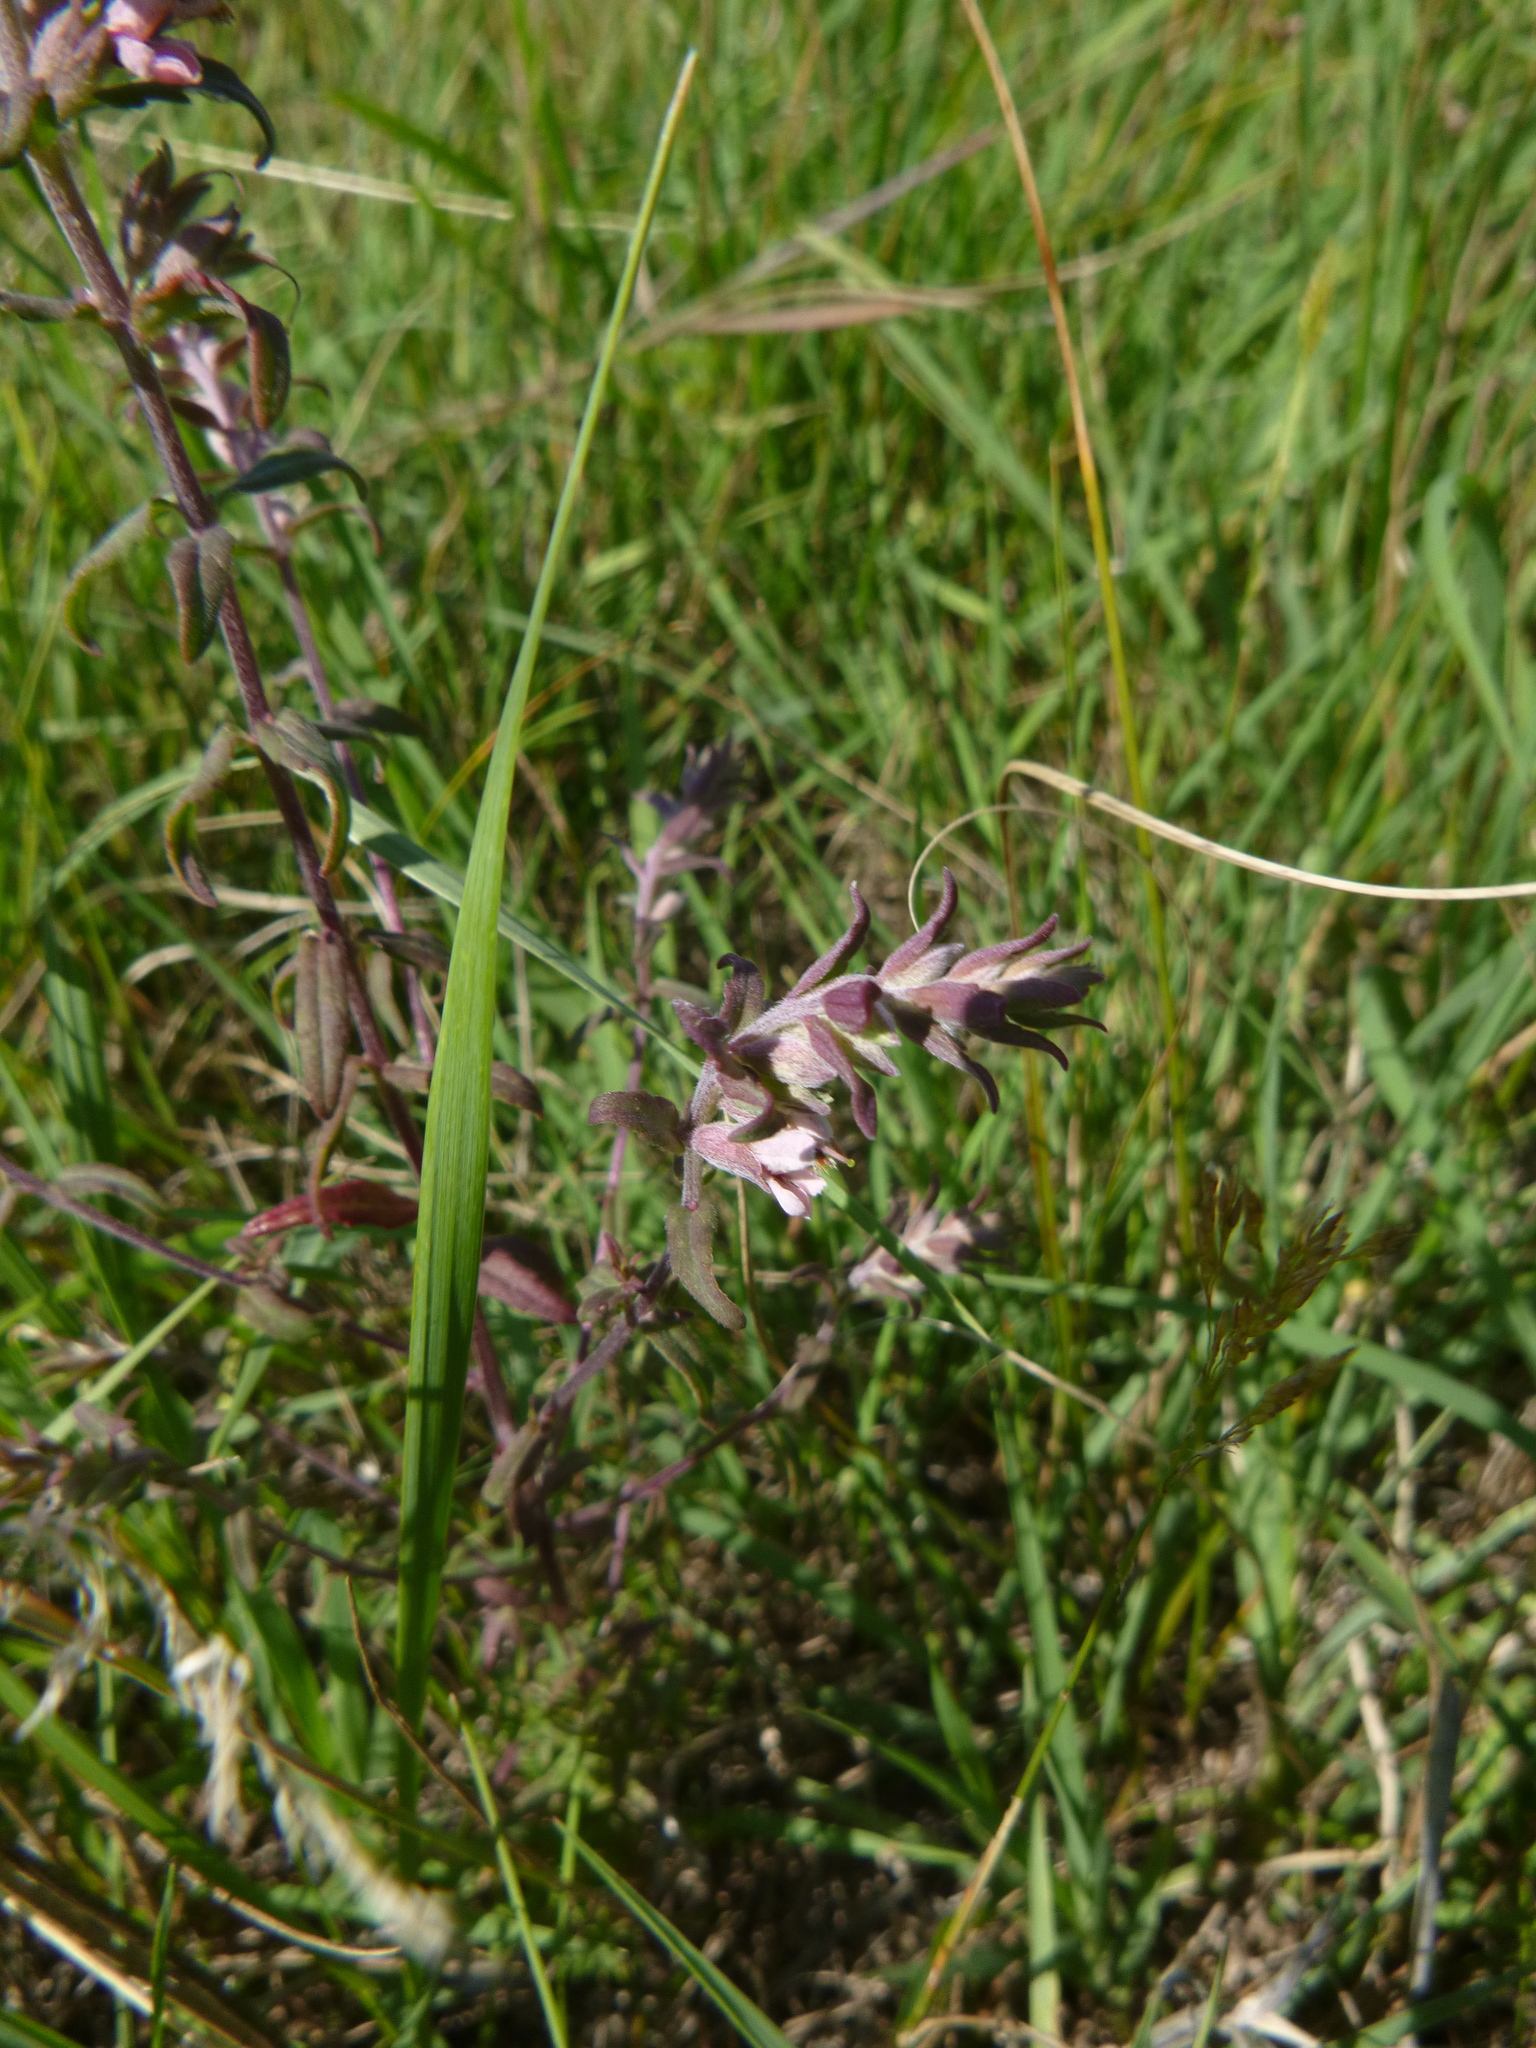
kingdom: Plantae
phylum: Tracheophyta
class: Magnoliopsida
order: Lamiales
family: Orobanchaceae
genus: Odontites
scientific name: Odontites vulgaris
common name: Broomrape
